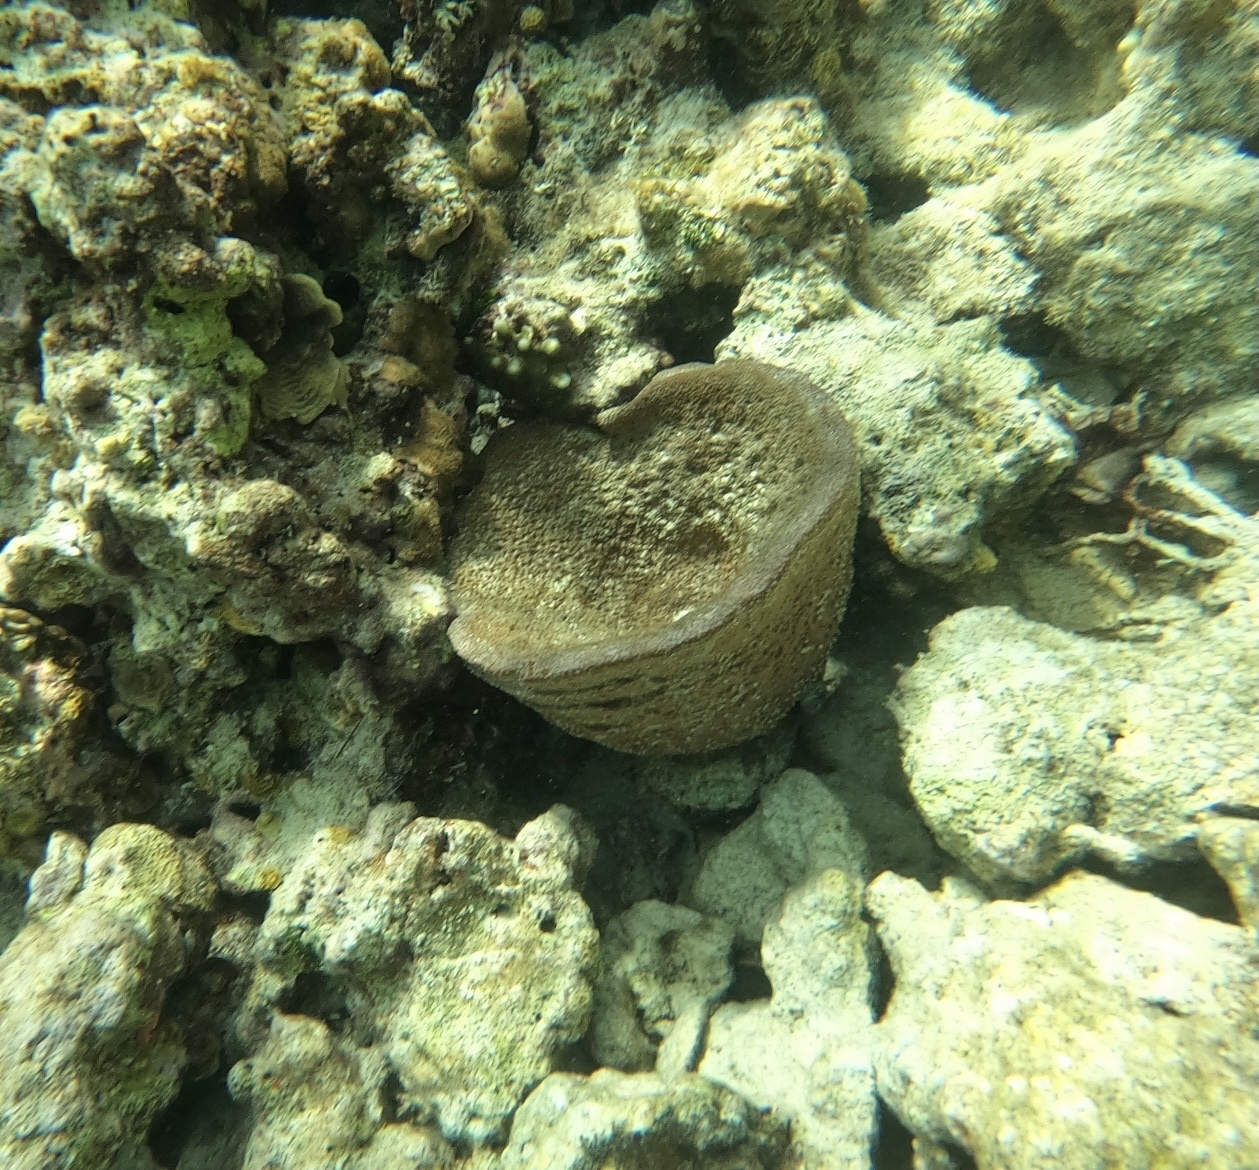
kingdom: Animalia
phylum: Porifera
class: Demospongiae
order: Dictyoceratida
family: Irciniidae
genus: Ircinia
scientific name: Ircinia campana
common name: Vase sponge
